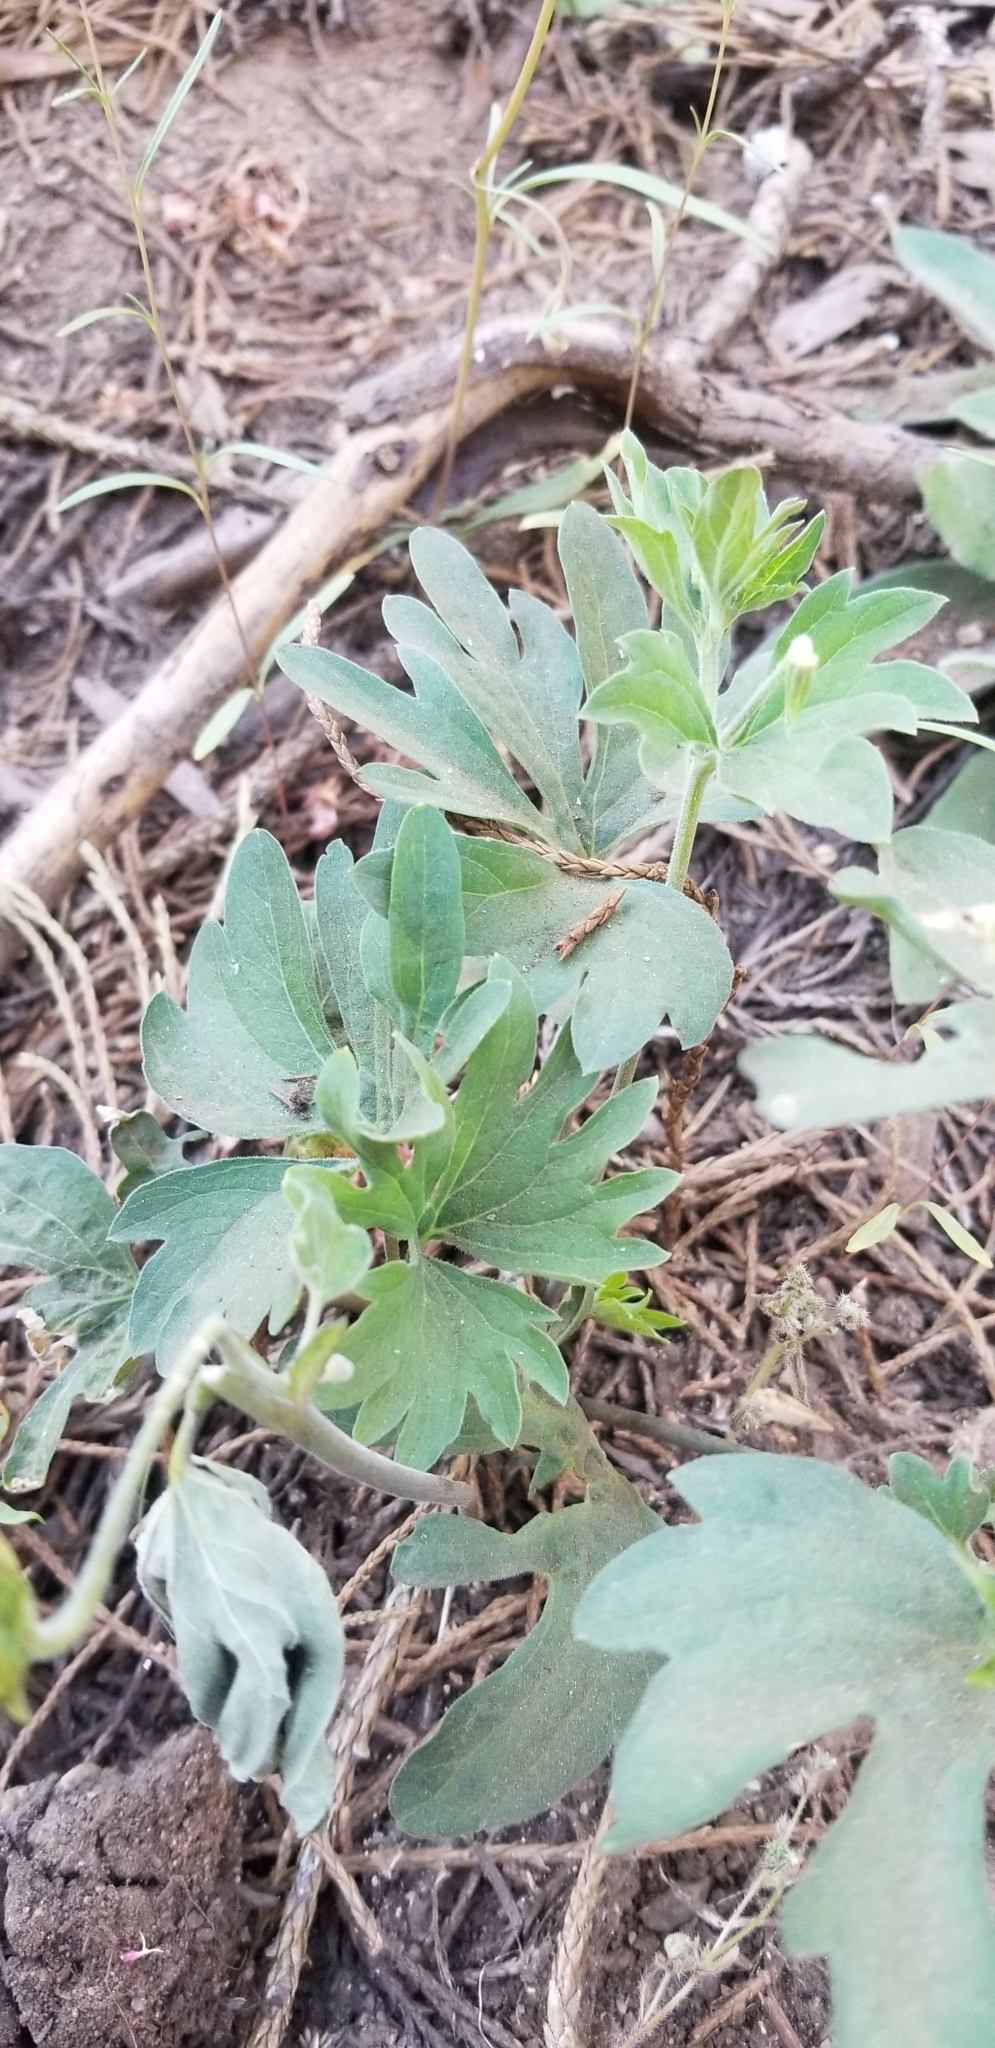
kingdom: Plantae
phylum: Tracheophyta
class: Magnoliopsida
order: Malpighiales
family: Violaceae
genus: Viola
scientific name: Viola lobata
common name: Pine violet
